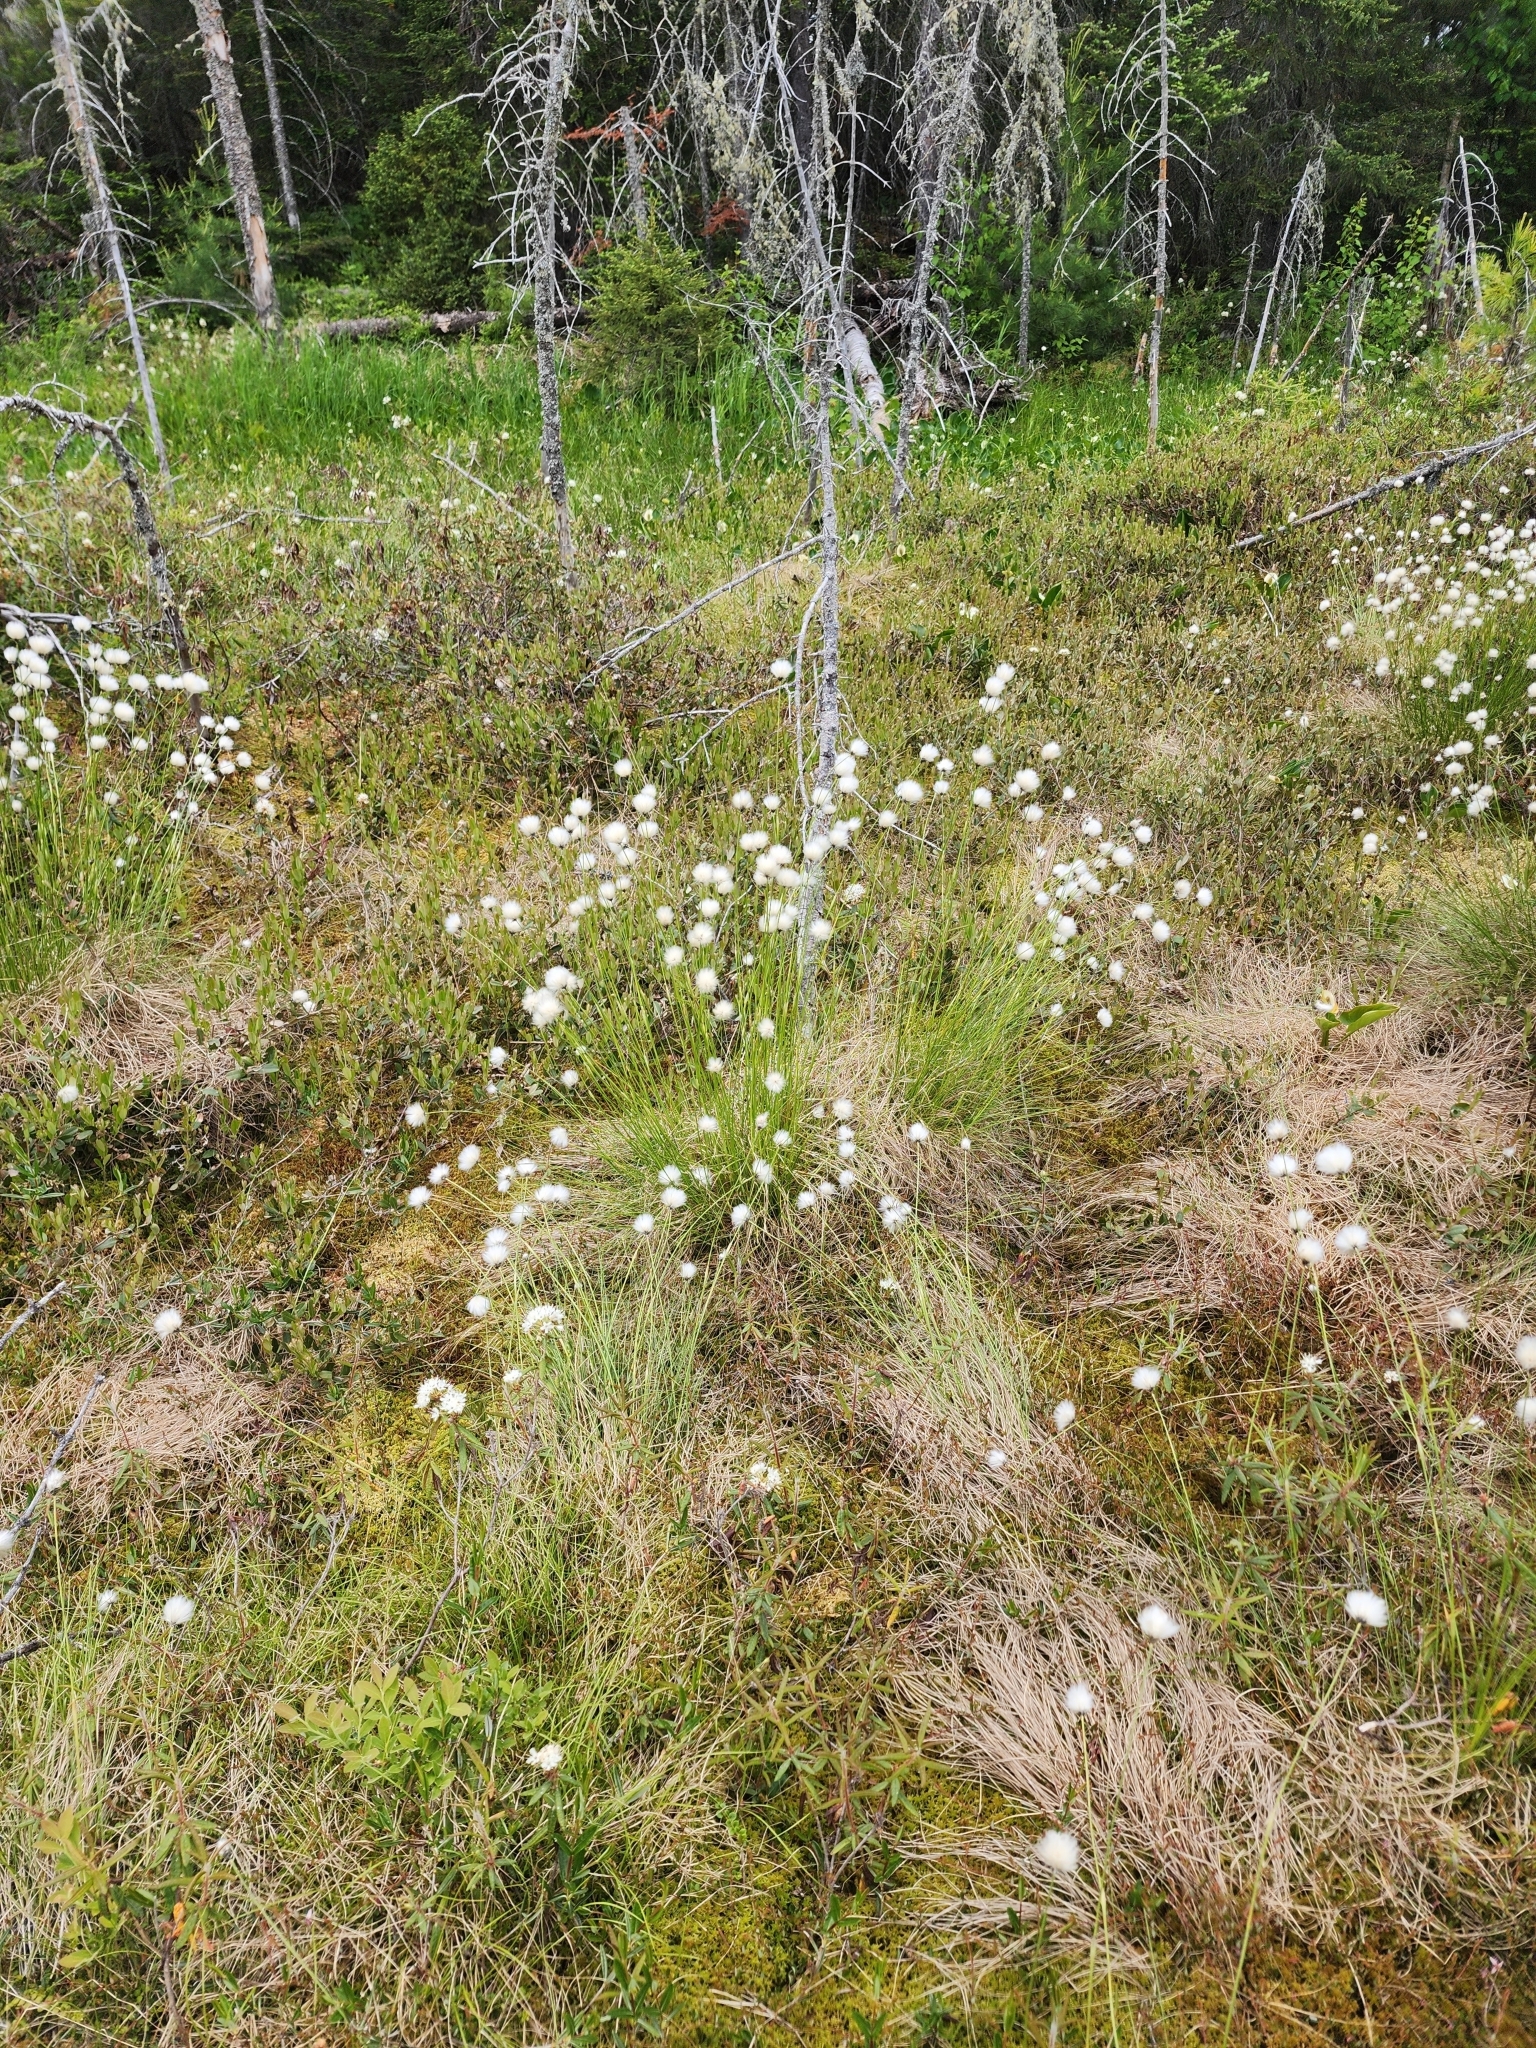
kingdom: Plantae
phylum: Tracheophyta
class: Liliopsida
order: Poales
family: Cyperaceae
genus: Eriophorum
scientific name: Eriophorum vaginatum
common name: Hare's-tail cottongrass
